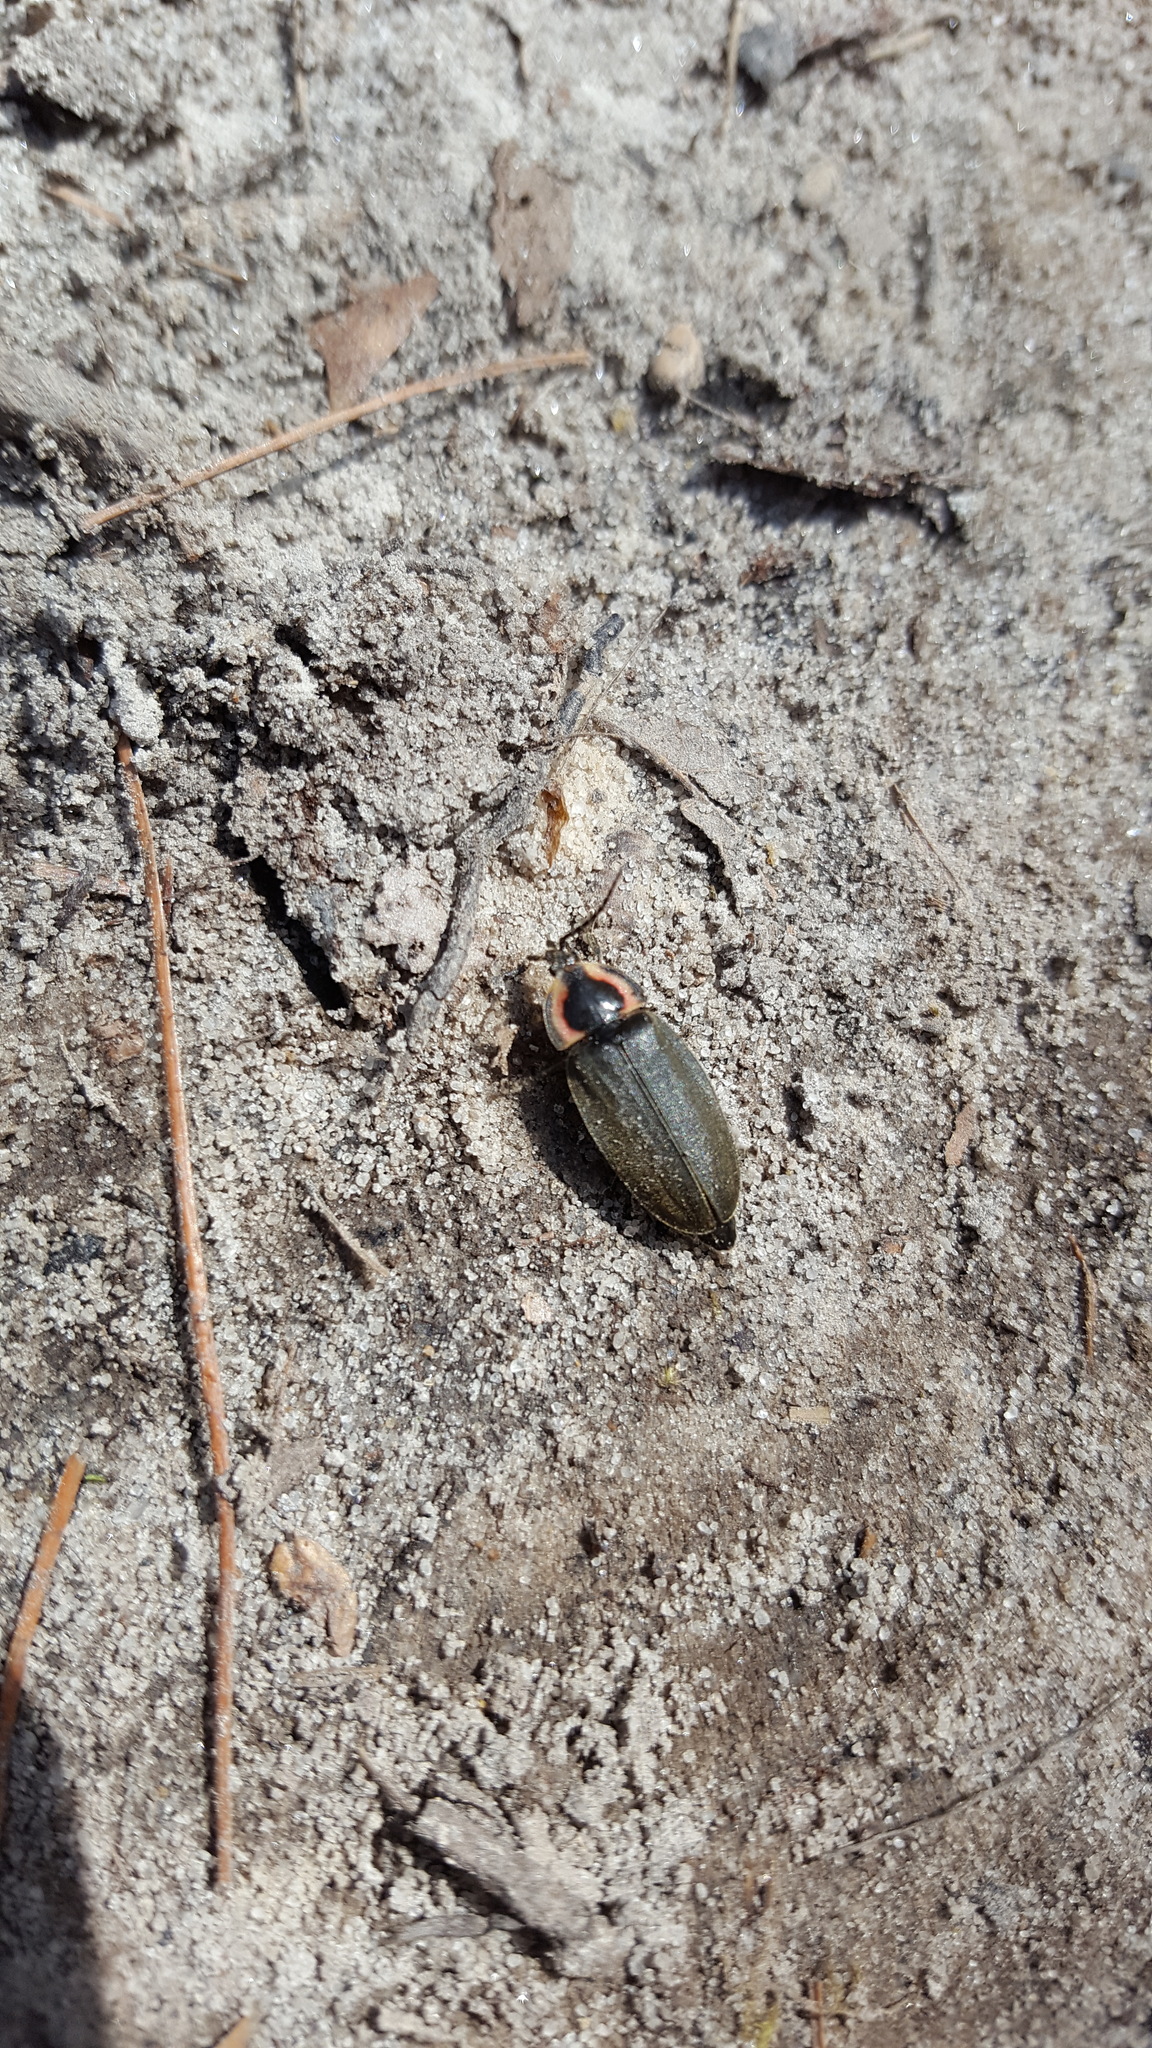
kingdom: Animalia
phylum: Arthropoda
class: Insecta
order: Coleoptera
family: Lampyridae
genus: Photinus
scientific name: Photinus corrusca
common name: Winter firefly
